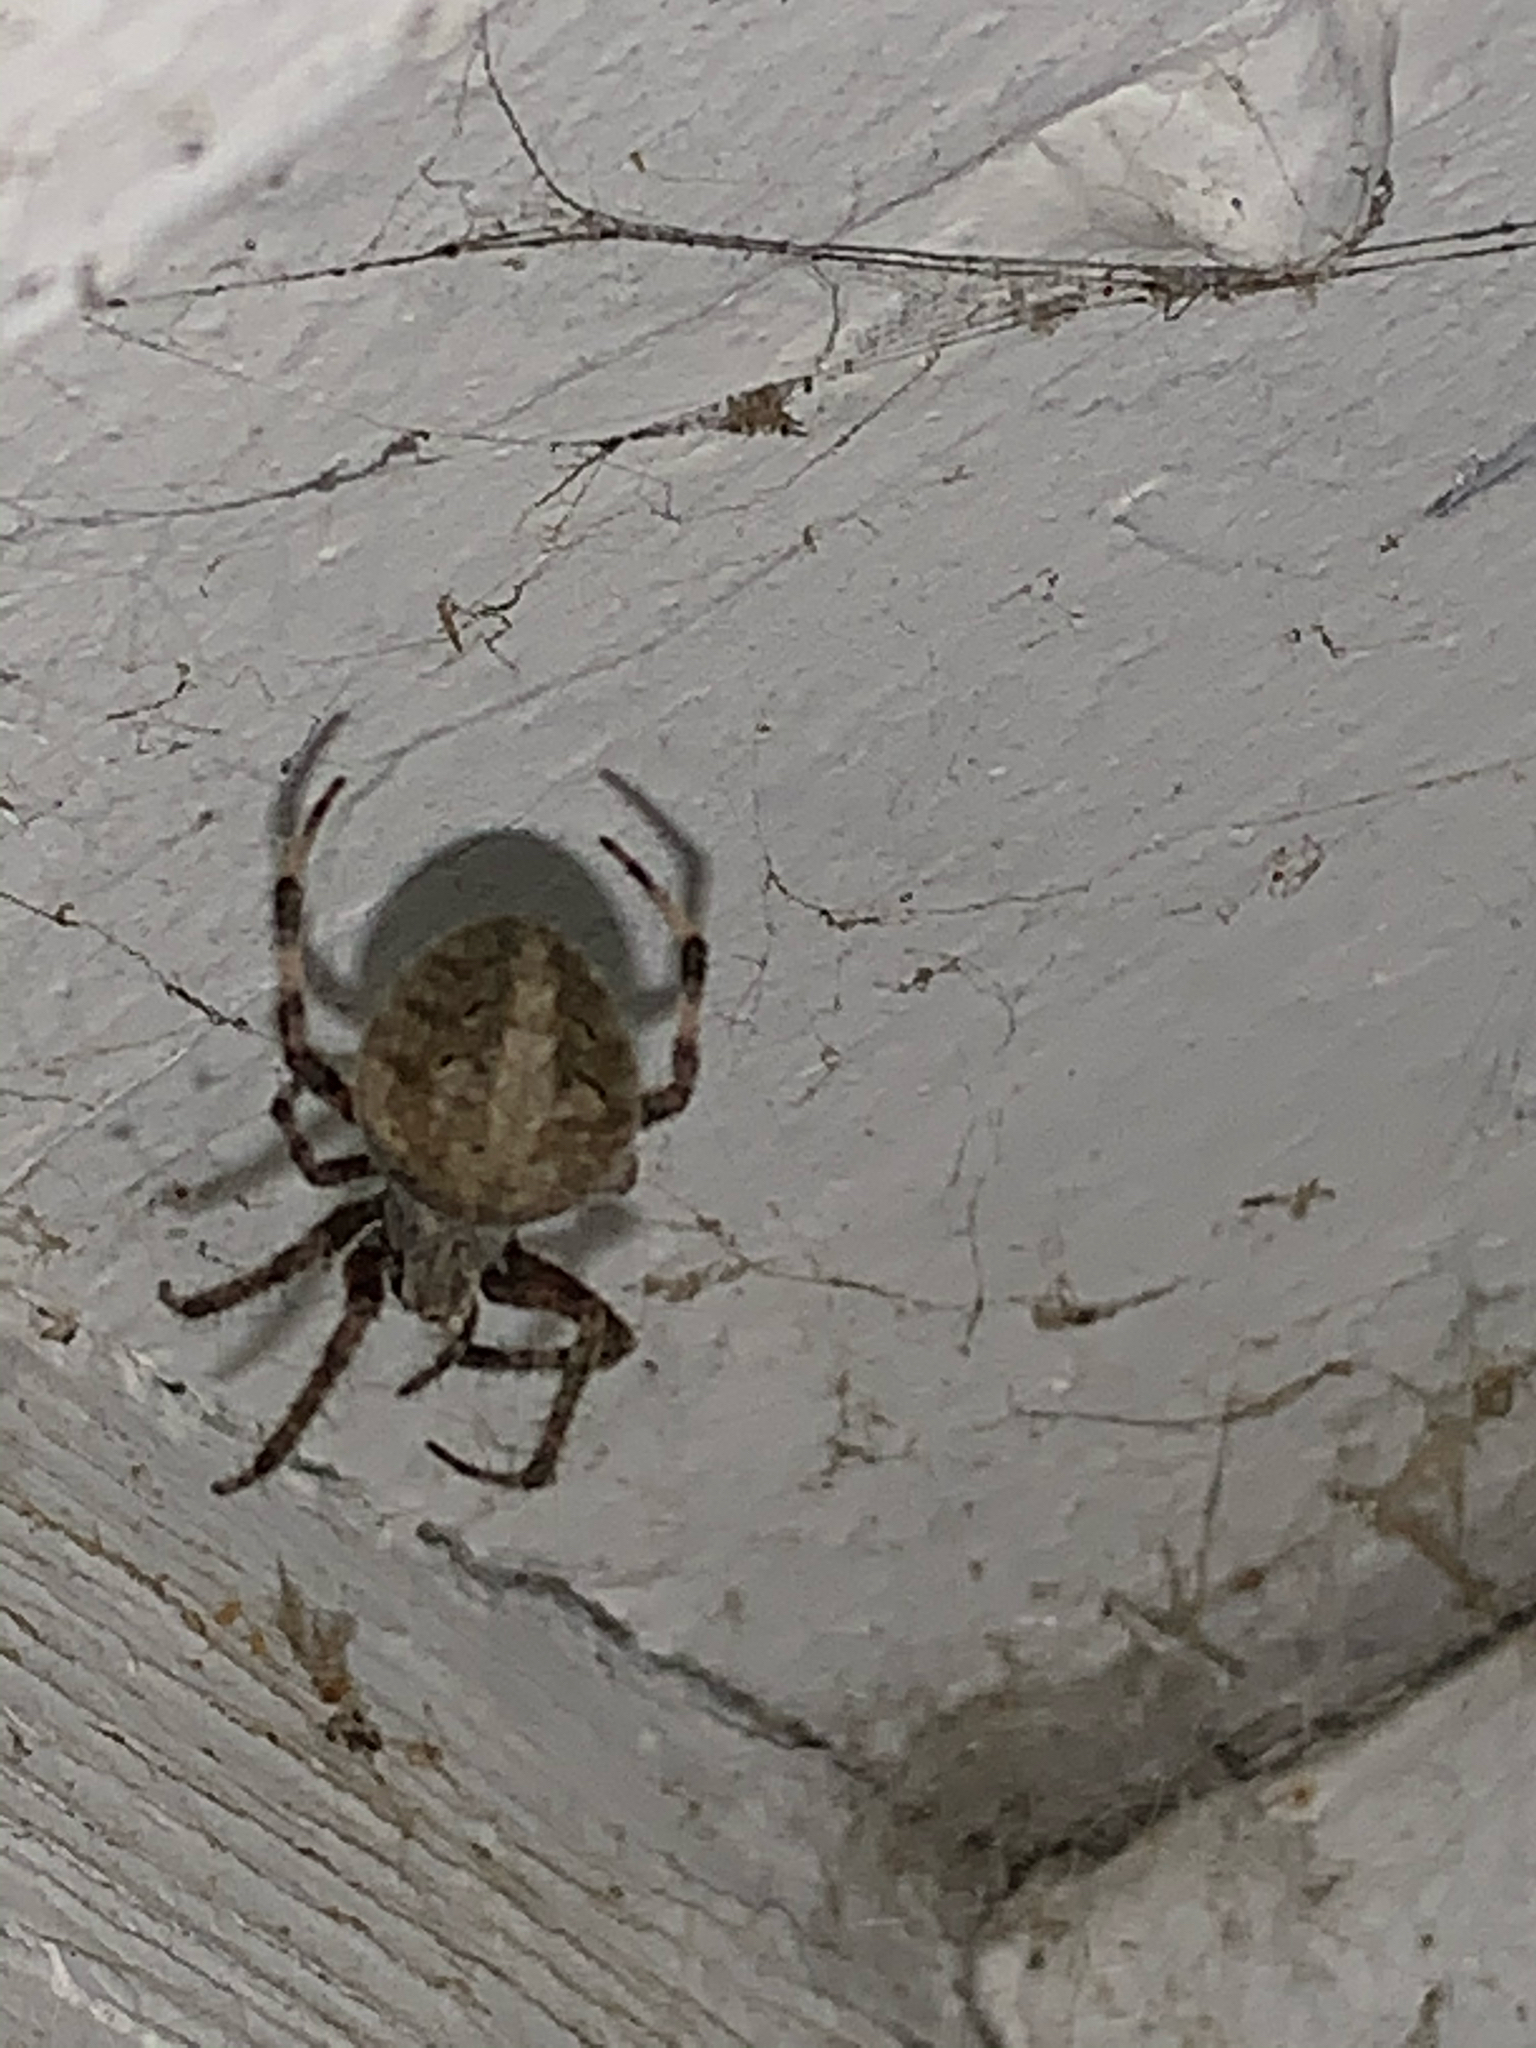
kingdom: Animalia
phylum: Arthropoda
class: Arachnida
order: Araneae
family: Araneidae
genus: Neoscona
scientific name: Neoscona crucifera
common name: Spotted orbweaver
